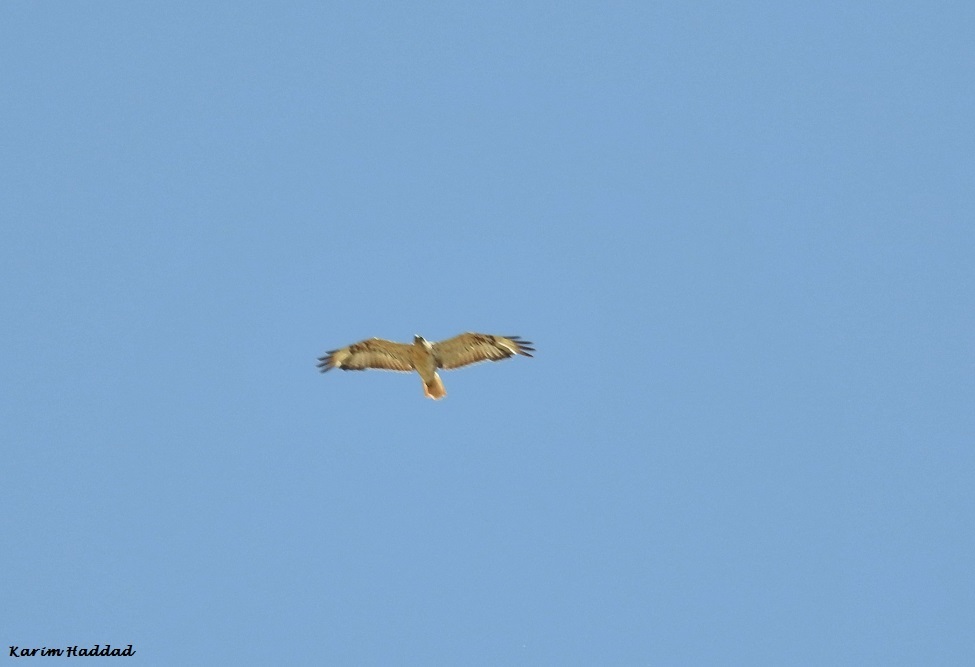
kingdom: Animalia
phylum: Chordata
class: Aves
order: Accipitriformes
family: Accipitridae
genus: Buteo
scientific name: Buteo rufinus
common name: Long-legged buzzard
